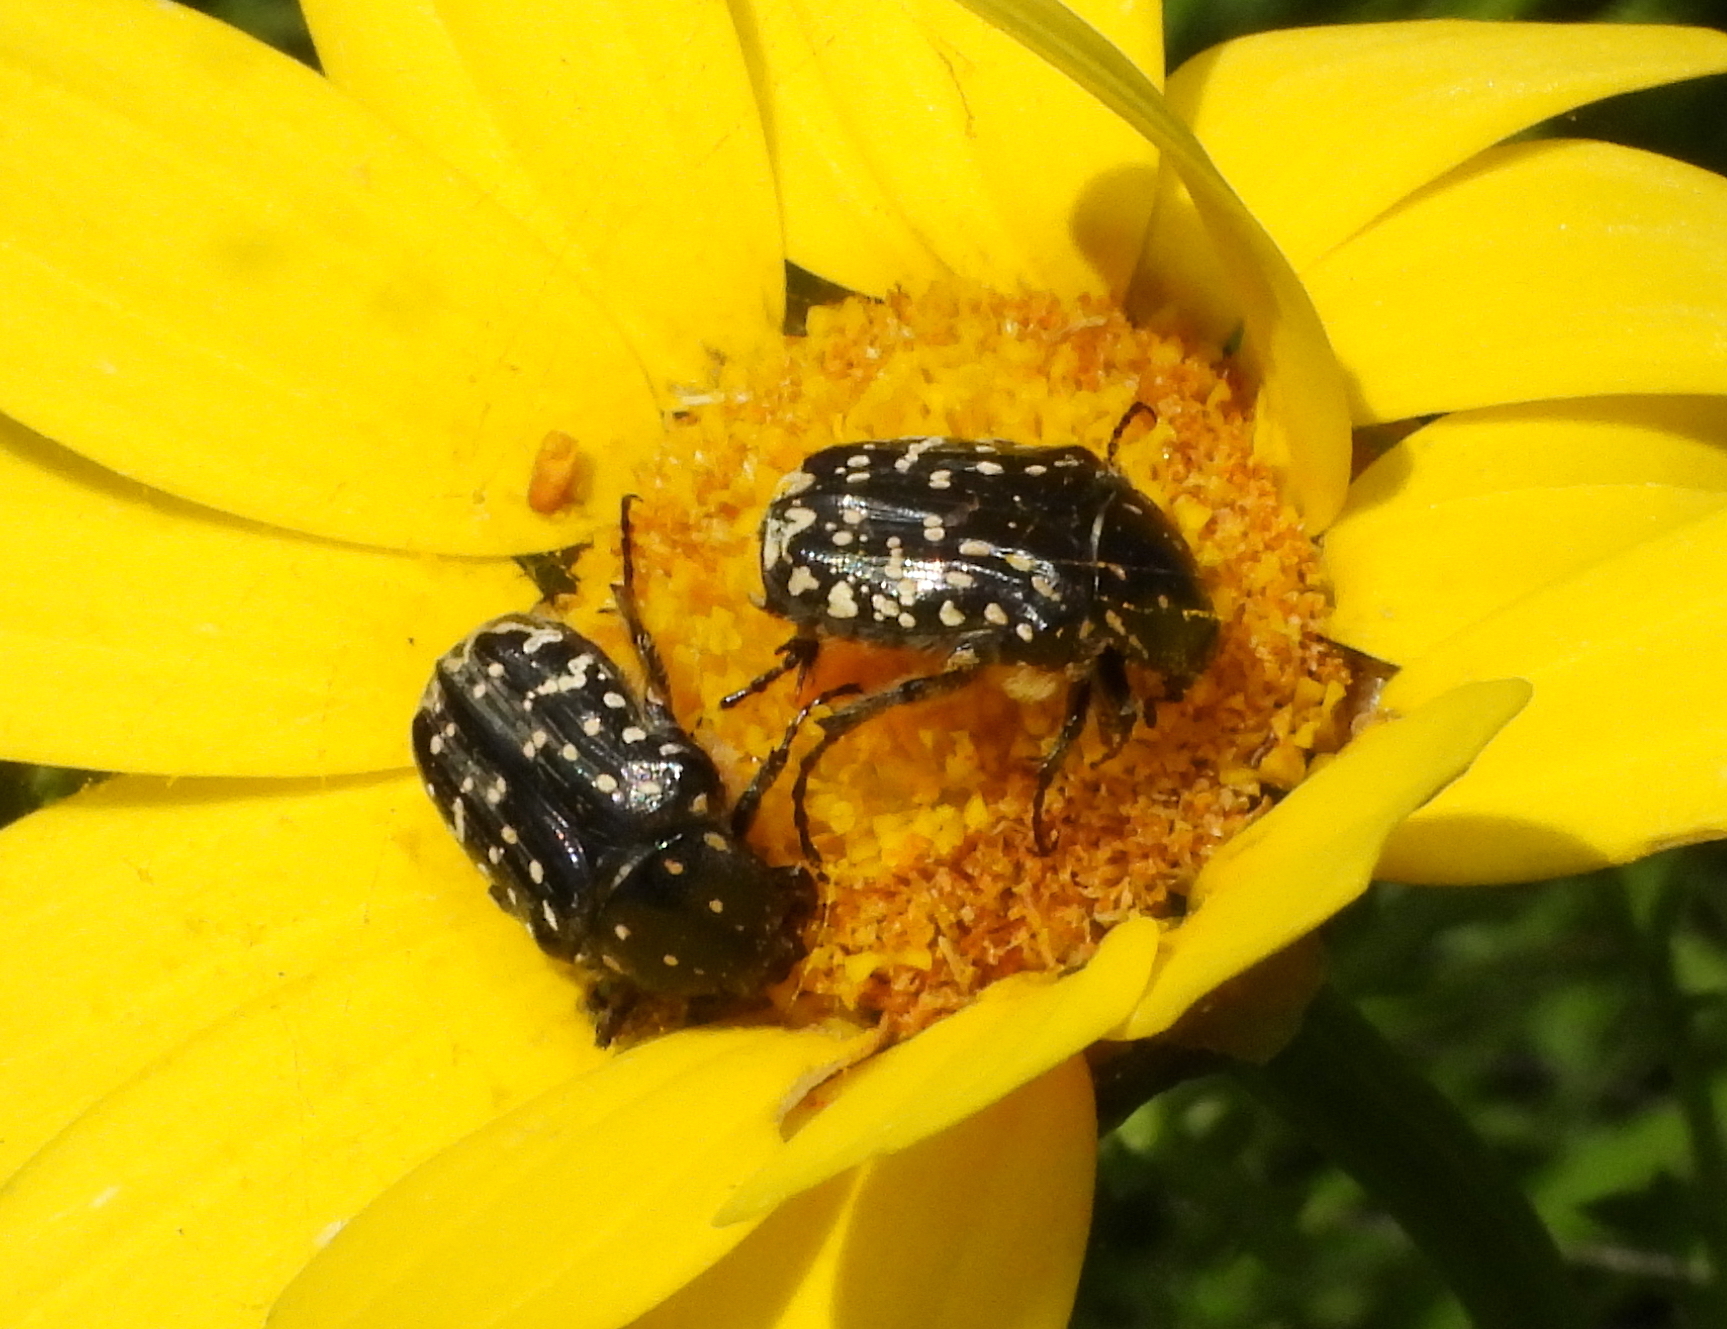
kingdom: Animalia
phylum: Arthropoda
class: Insecta
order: Coleoptera
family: Scarabaeidae
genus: Oxythyrea
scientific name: Oxythyrea noemi
